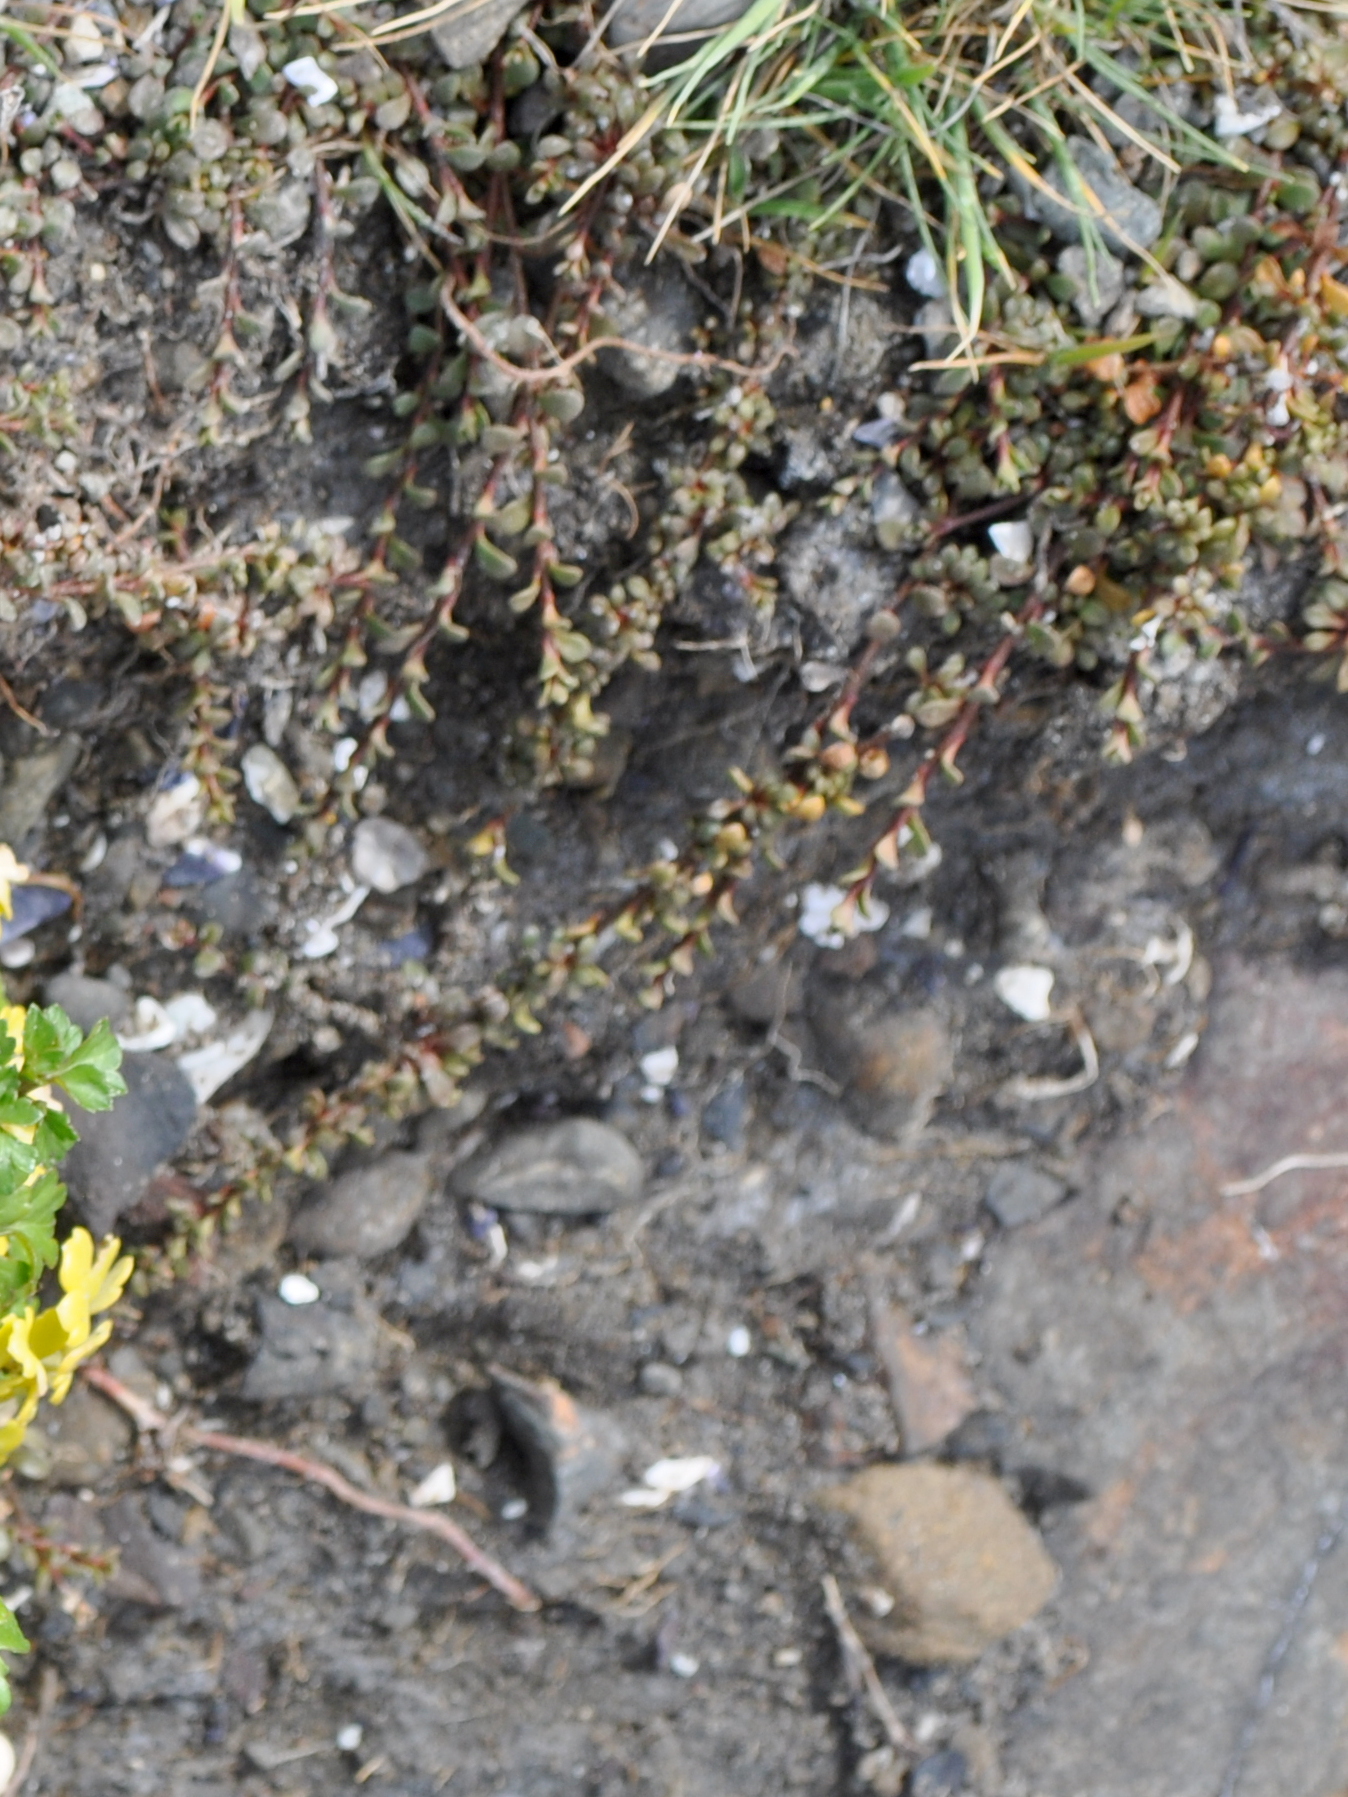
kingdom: Plantae
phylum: Tracheophyta
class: Magnoliopsida
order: Ericales
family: Primulaceae
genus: Samolus
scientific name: Samolus repens
